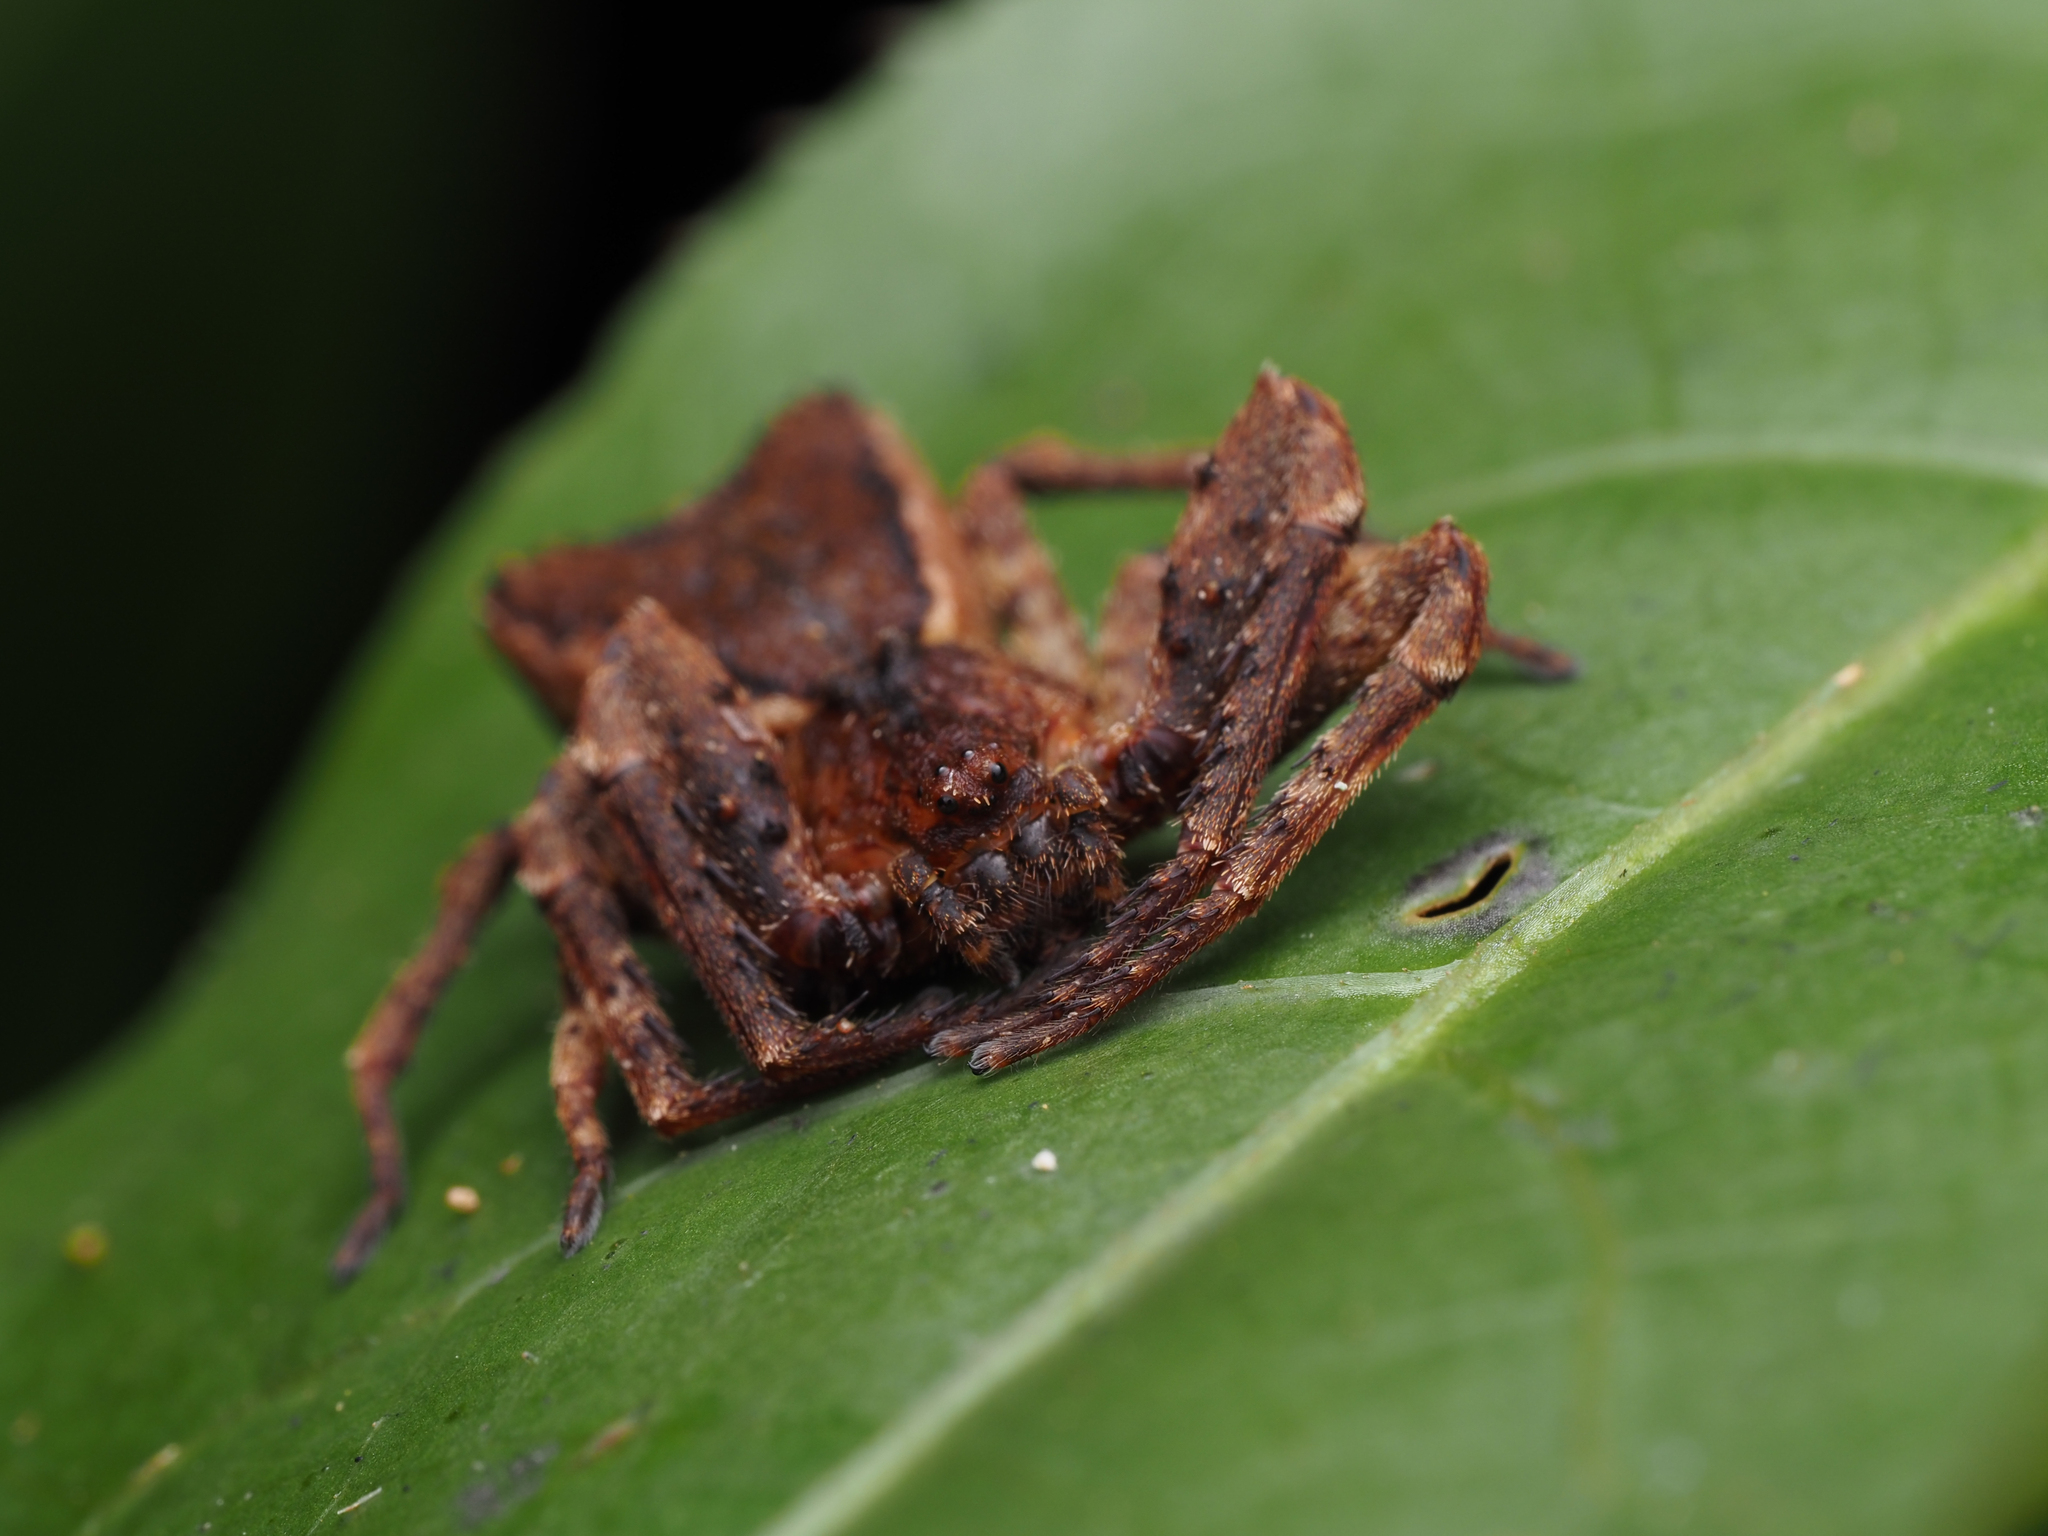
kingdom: Animalia
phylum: Arthropoda
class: Arachnida
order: Araneae
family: Thomisidae
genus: Sidymella
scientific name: Sidymella angularis
